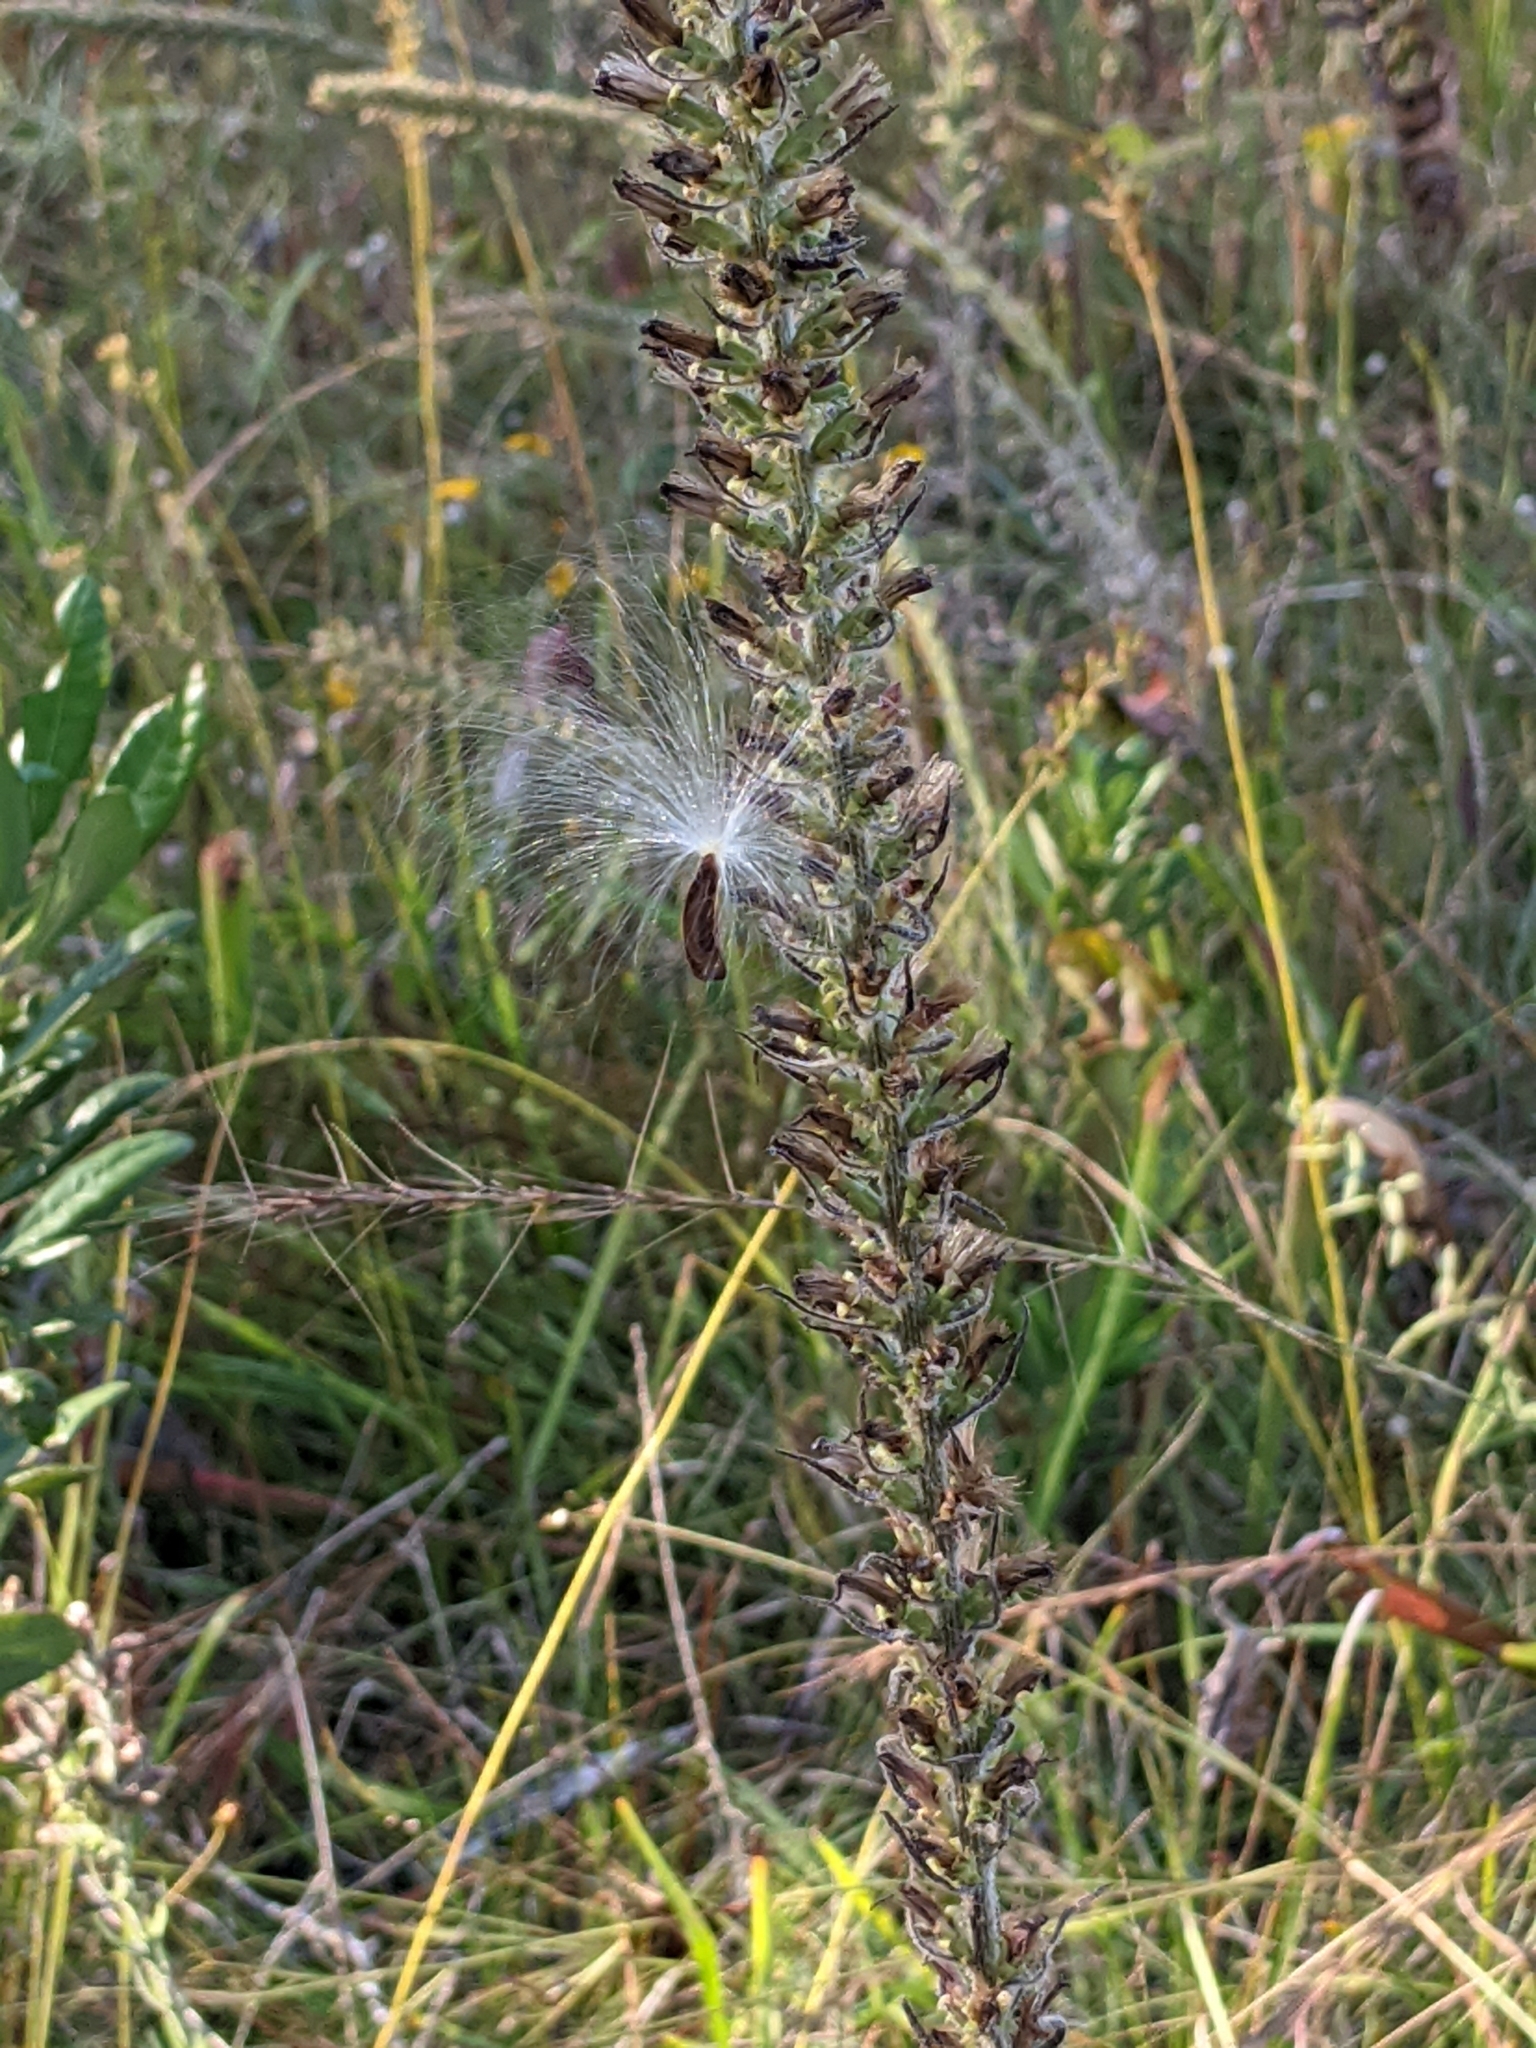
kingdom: Plantae
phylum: Tracheophyta
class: Magnoliopsida
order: Asterales
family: Asteraceae
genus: Liatris
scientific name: Liatris pycnostachya
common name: Cattail gayfeather
